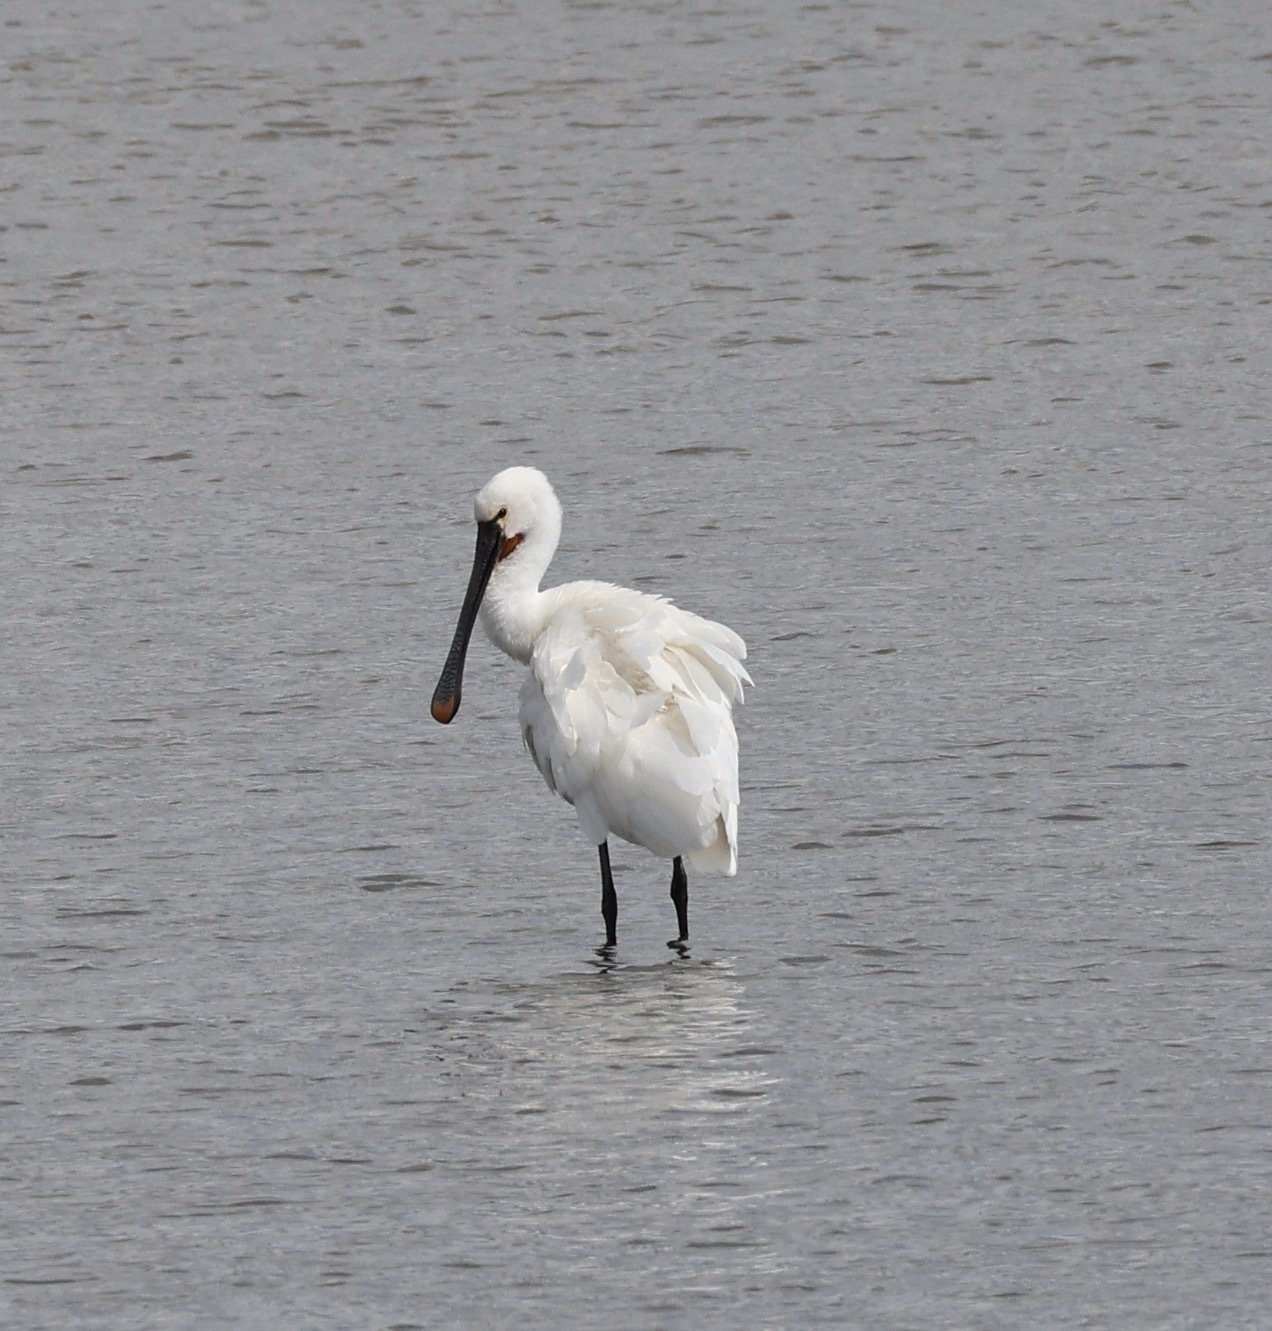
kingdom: Animalia
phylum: Chordata
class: Aves
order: Pelecaniformes
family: Threskiornithidae
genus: Platalea
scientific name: Platalea leucorodia
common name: Eurasian spoonbill
